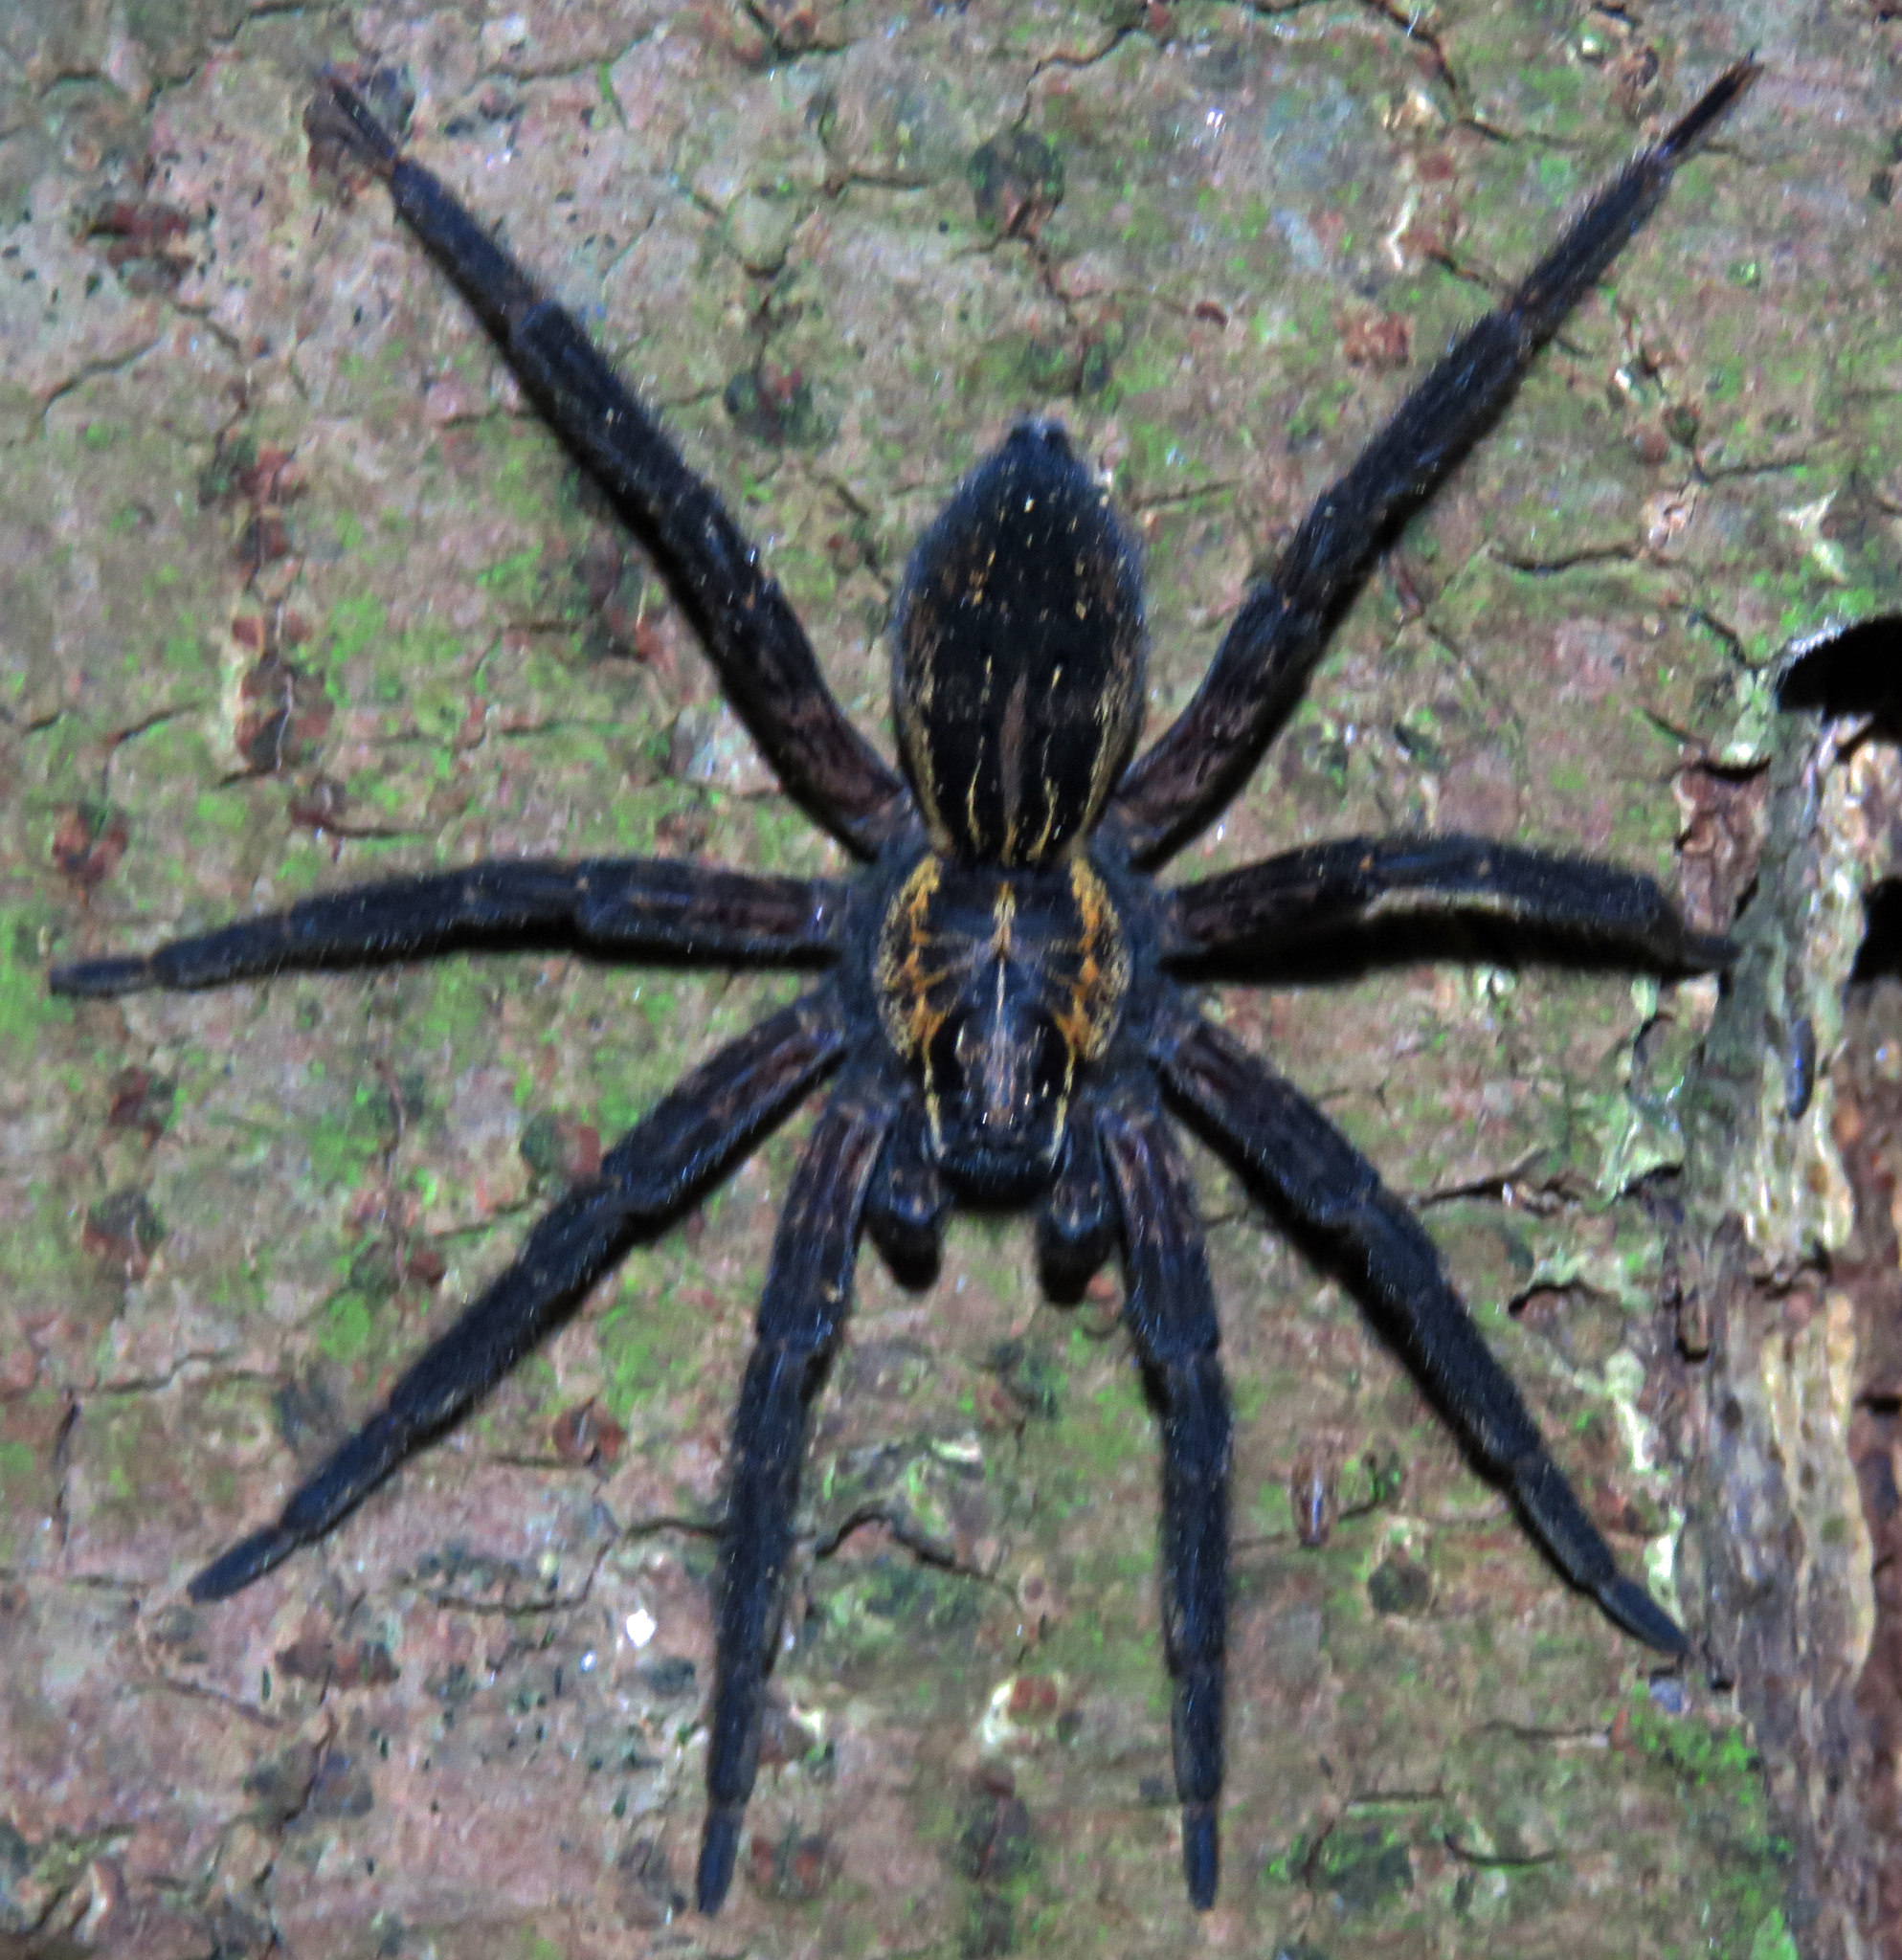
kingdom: Animalia
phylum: Arthropoda
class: Arachnida
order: Araneae
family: Pisauridae
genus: Dolomedes
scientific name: Dolomedes schauinslandi
